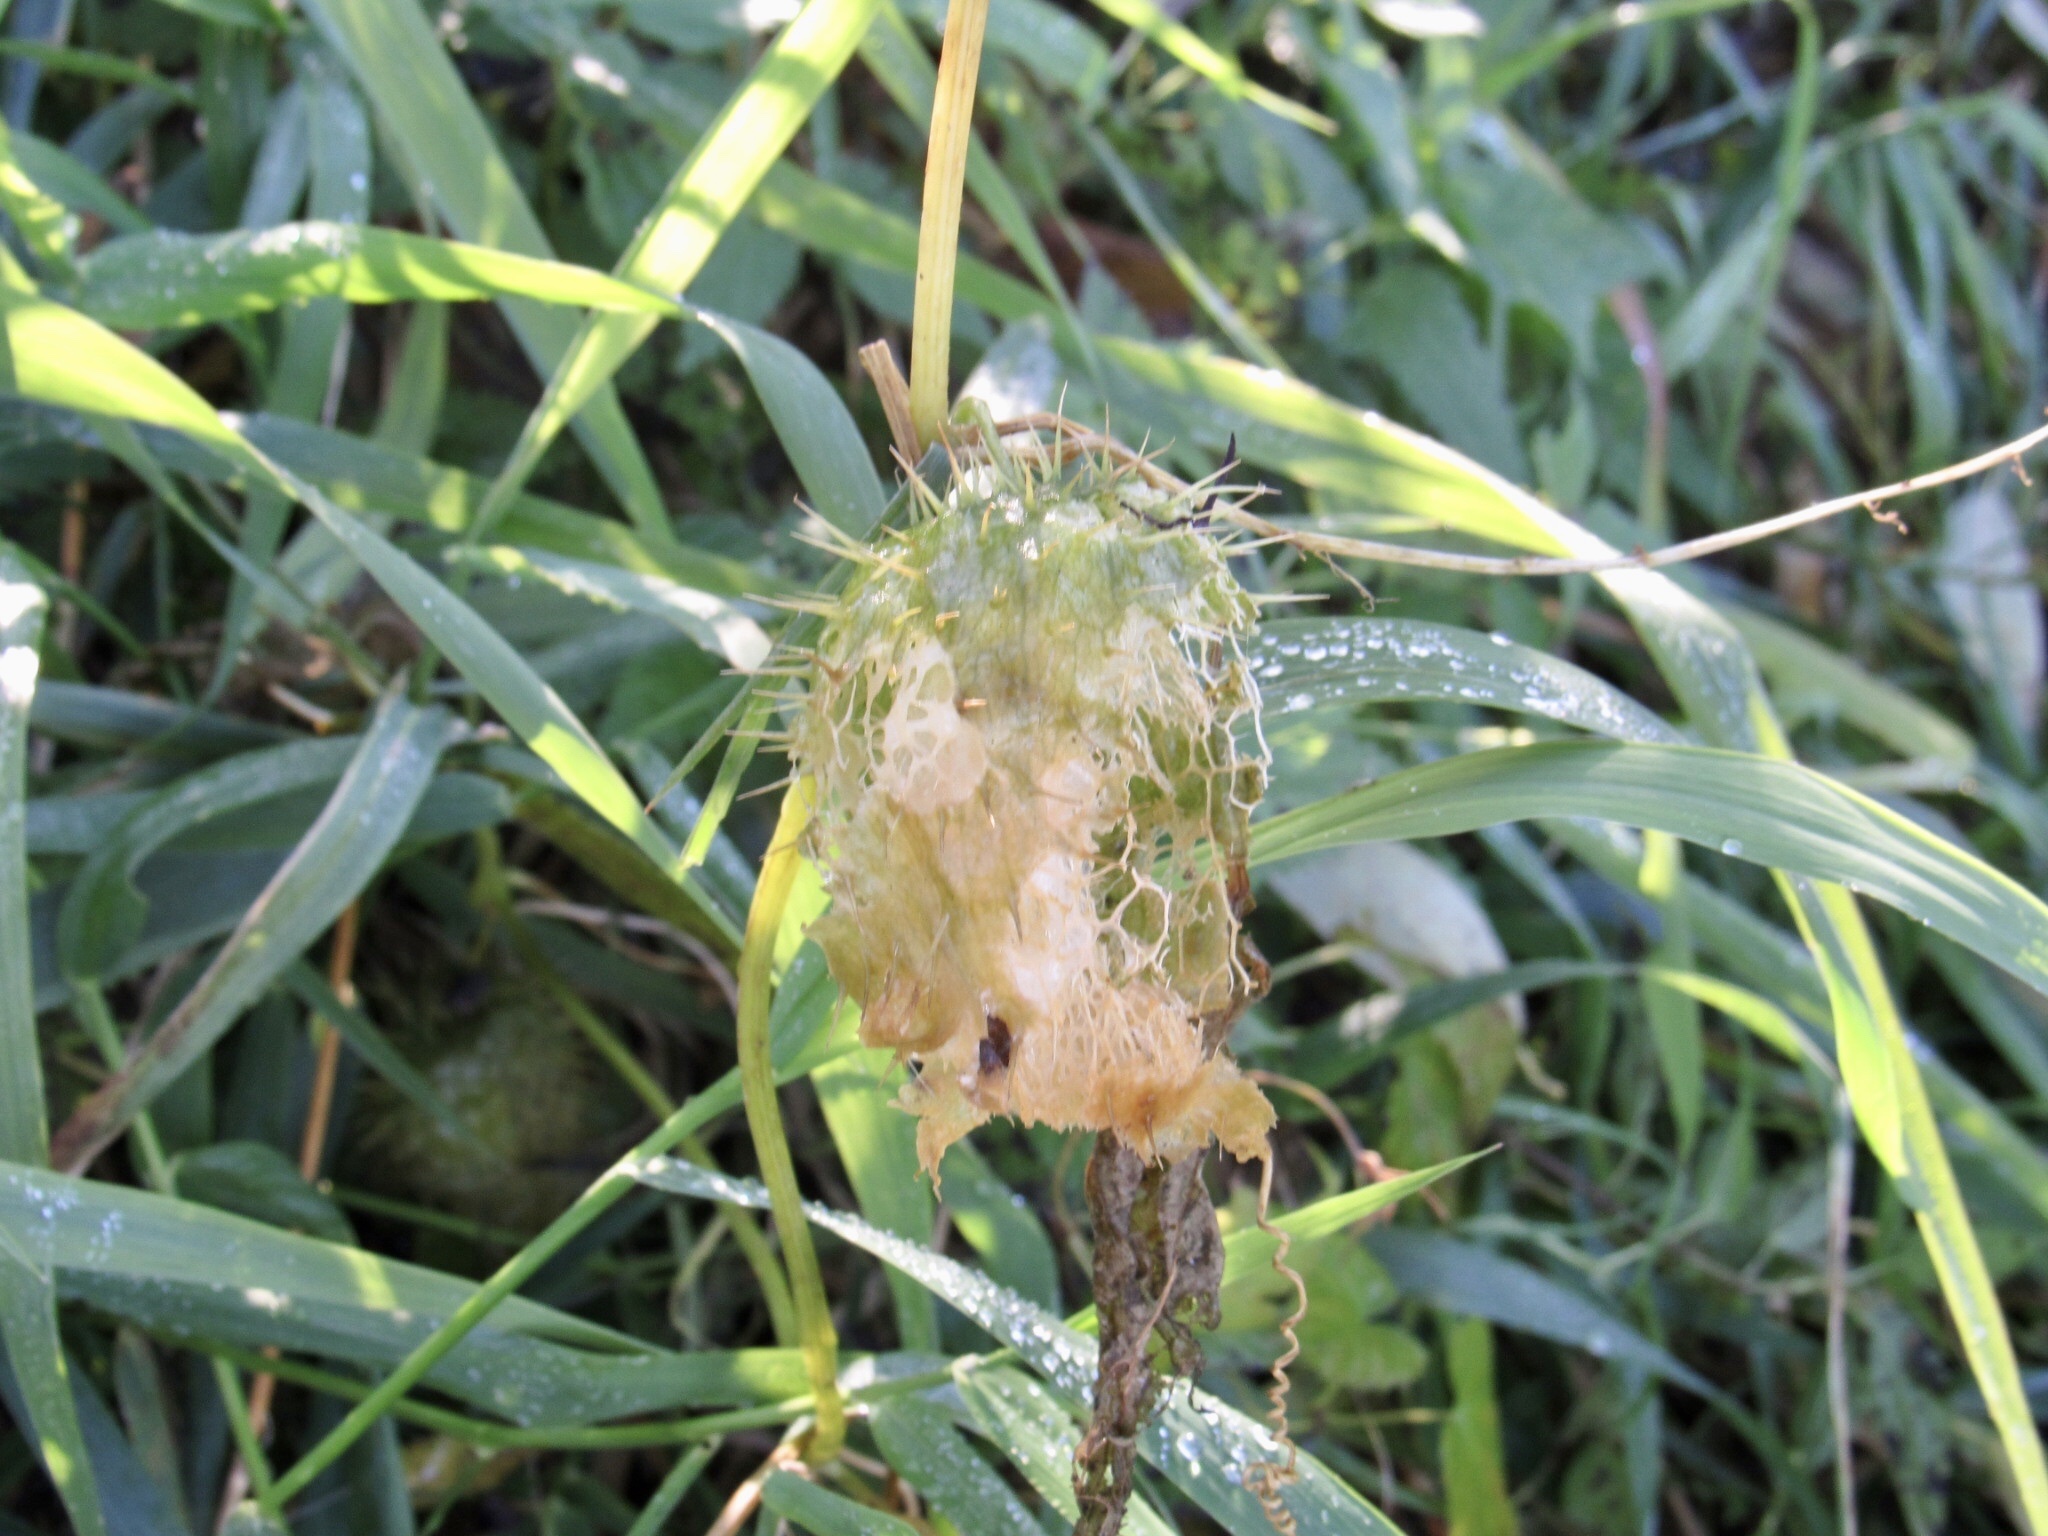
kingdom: Plantae
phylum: Tracheophyta
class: Magnoliopsida
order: Cucurbitales
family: Cucurbitaceae
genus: Echinocystis
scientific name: Echinocystis lobata
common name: Wild cucumber
